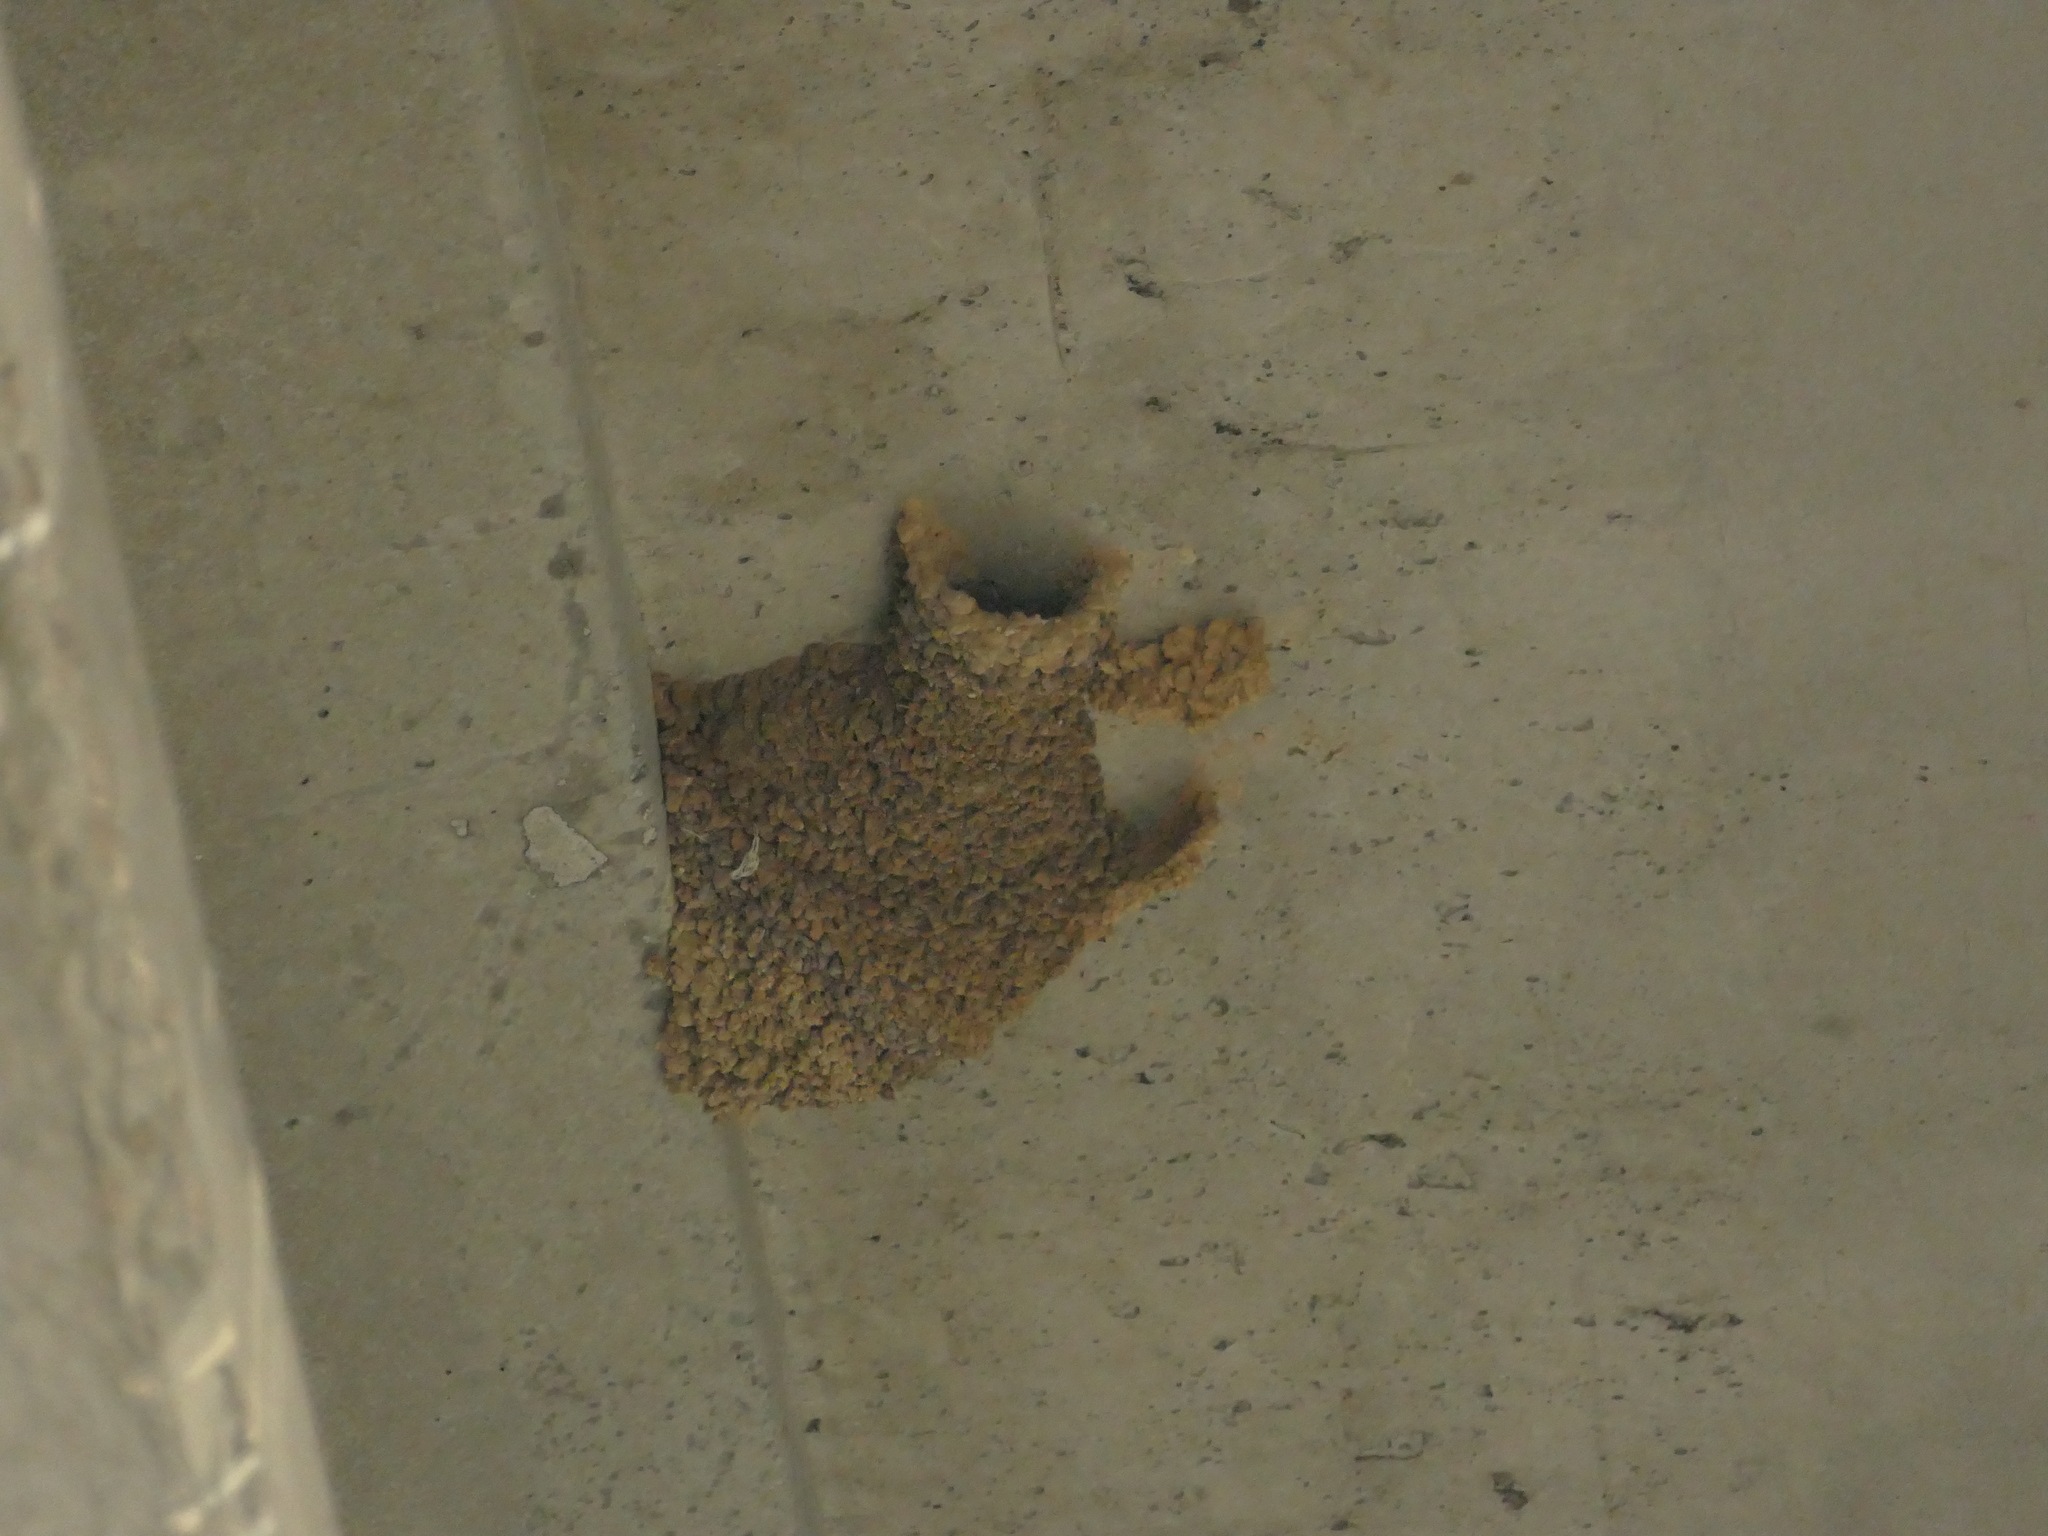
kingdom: Animalia
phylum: Chordata
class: Aves
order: Passeriformes
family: Hirundinidae
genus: Cecropis
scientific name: Cecropis daurica
